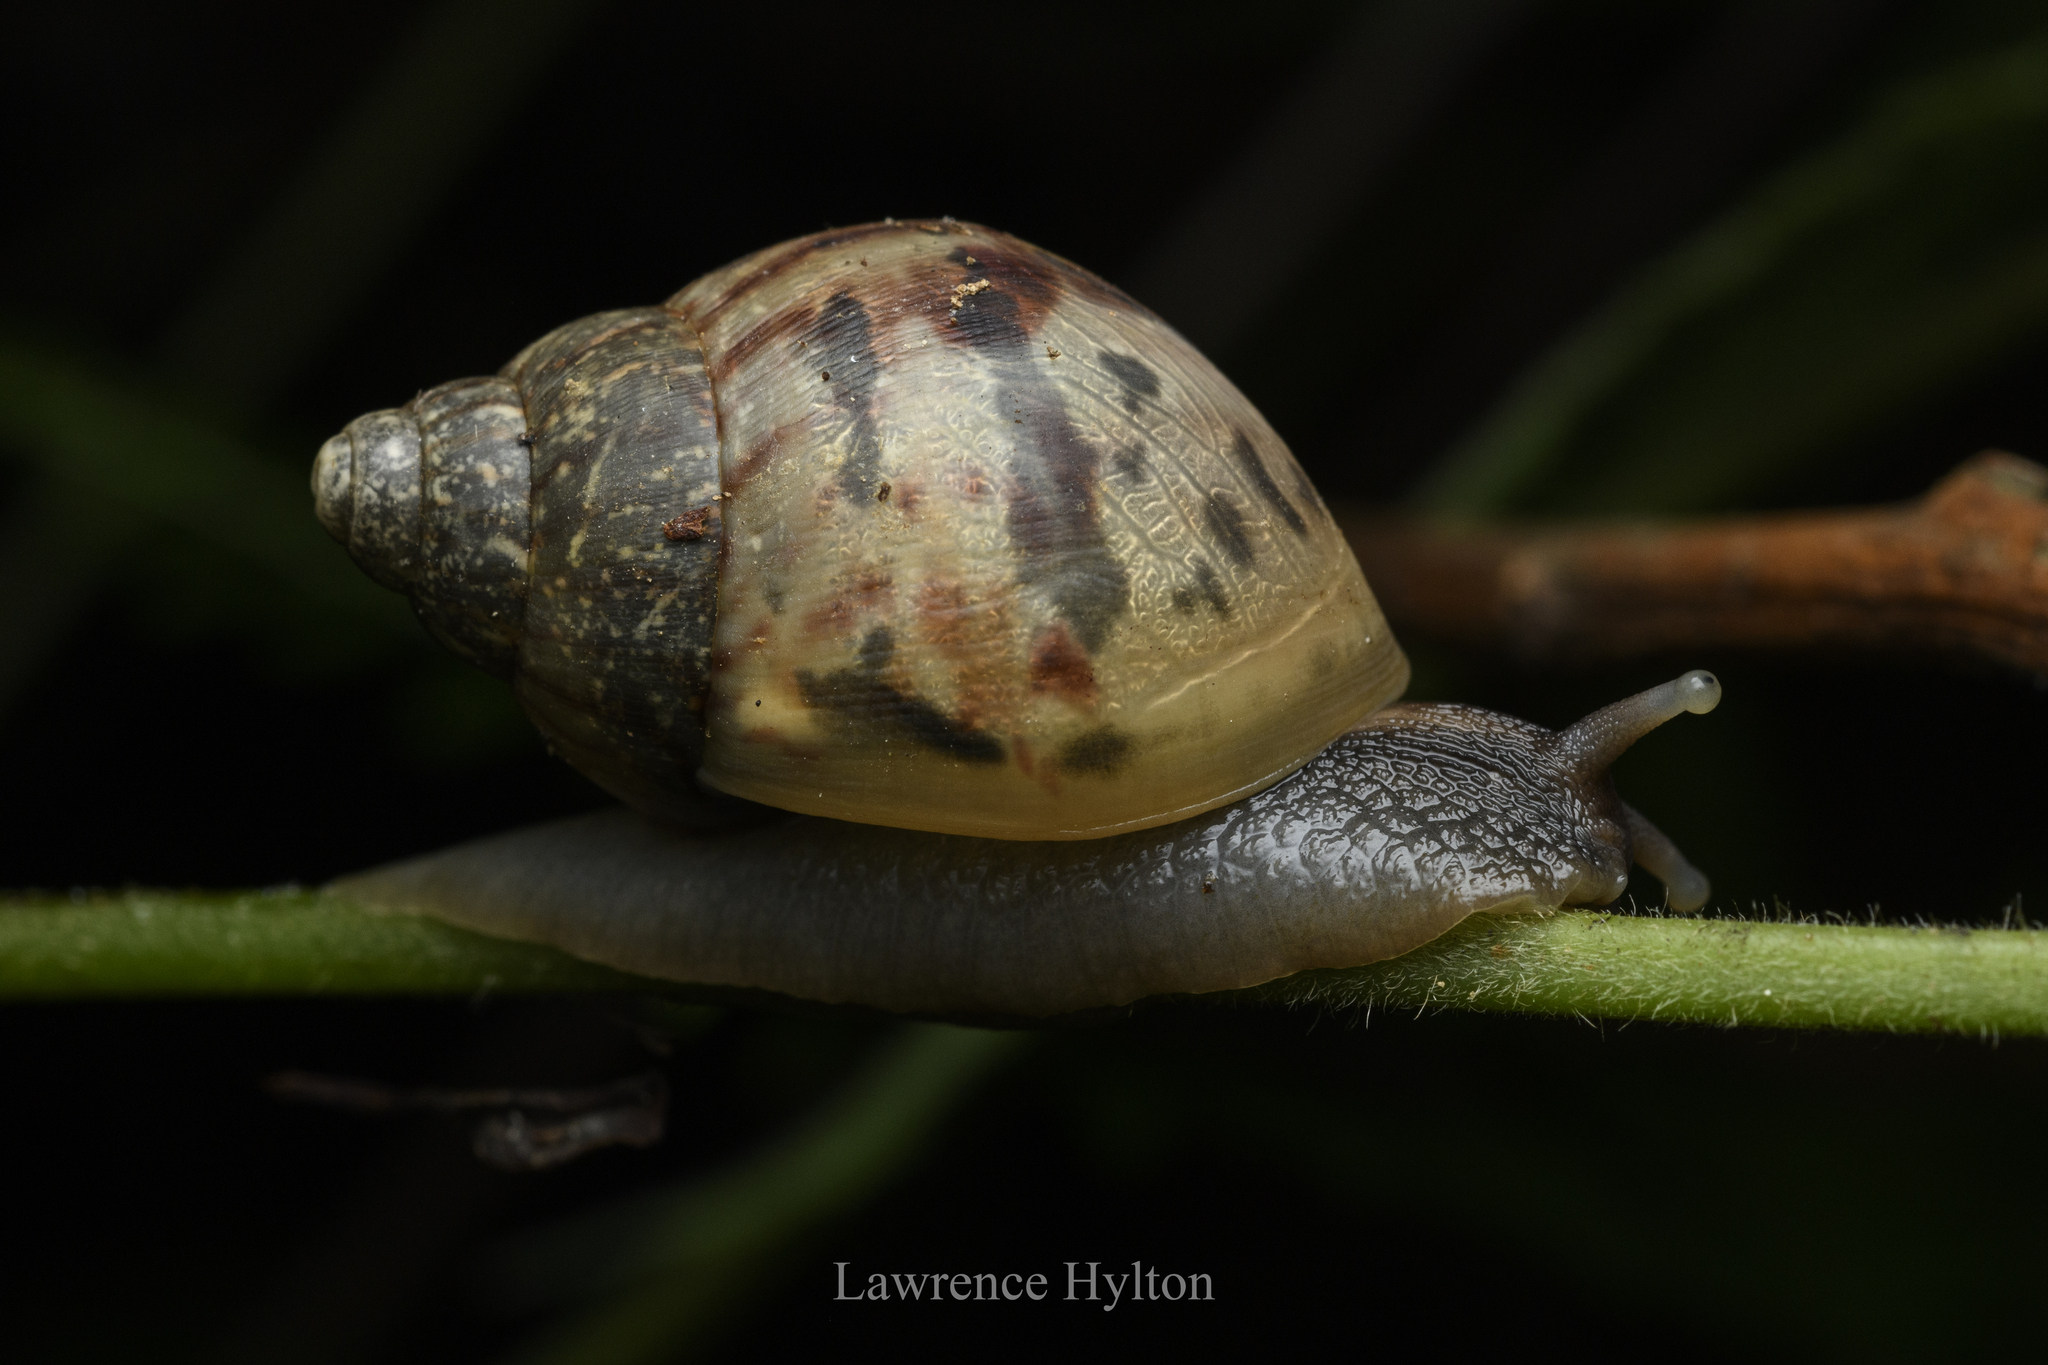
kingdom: Animalia
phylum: Mollusca
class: Gastropoda
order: Stylommatophora
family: Achatinidae
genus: Lissachatina
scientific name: Lissachatina fulica
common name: Giant african snail
